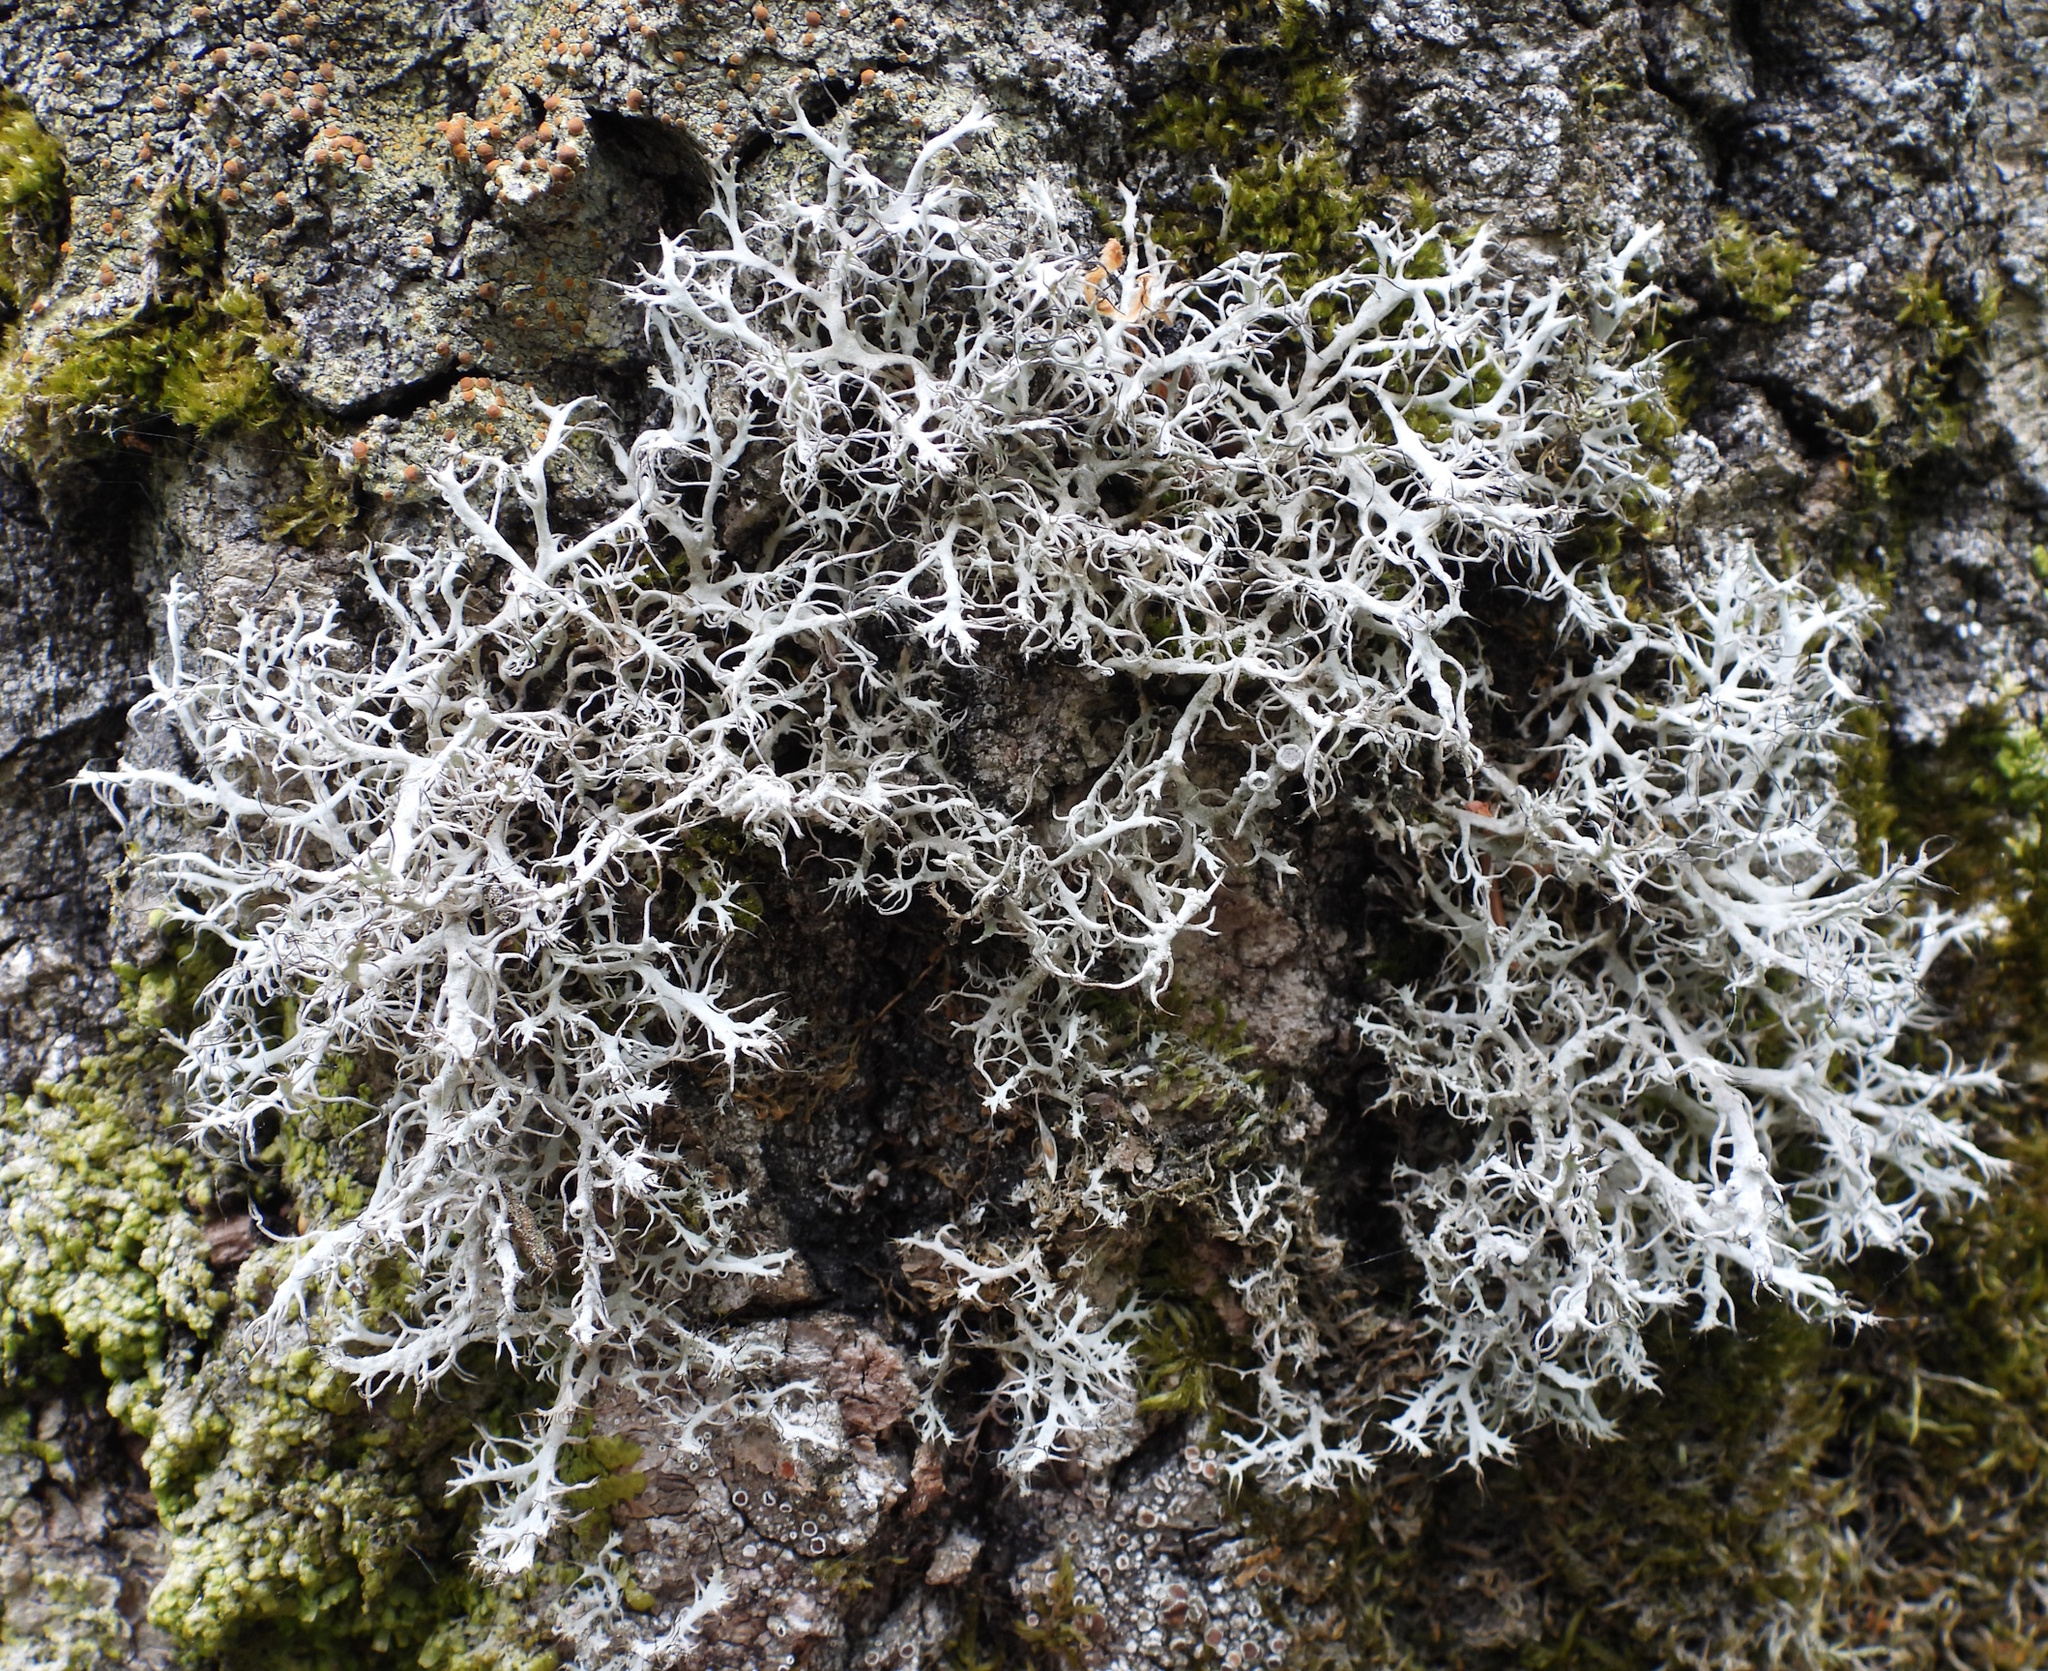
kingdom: Fungi
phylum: Ascomycota
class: Lecanoromycetes
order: Caliciales
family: Physciaceae
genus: Anaptychia
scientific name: Anaptychia ciliaris
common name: Great ciliated lichen
